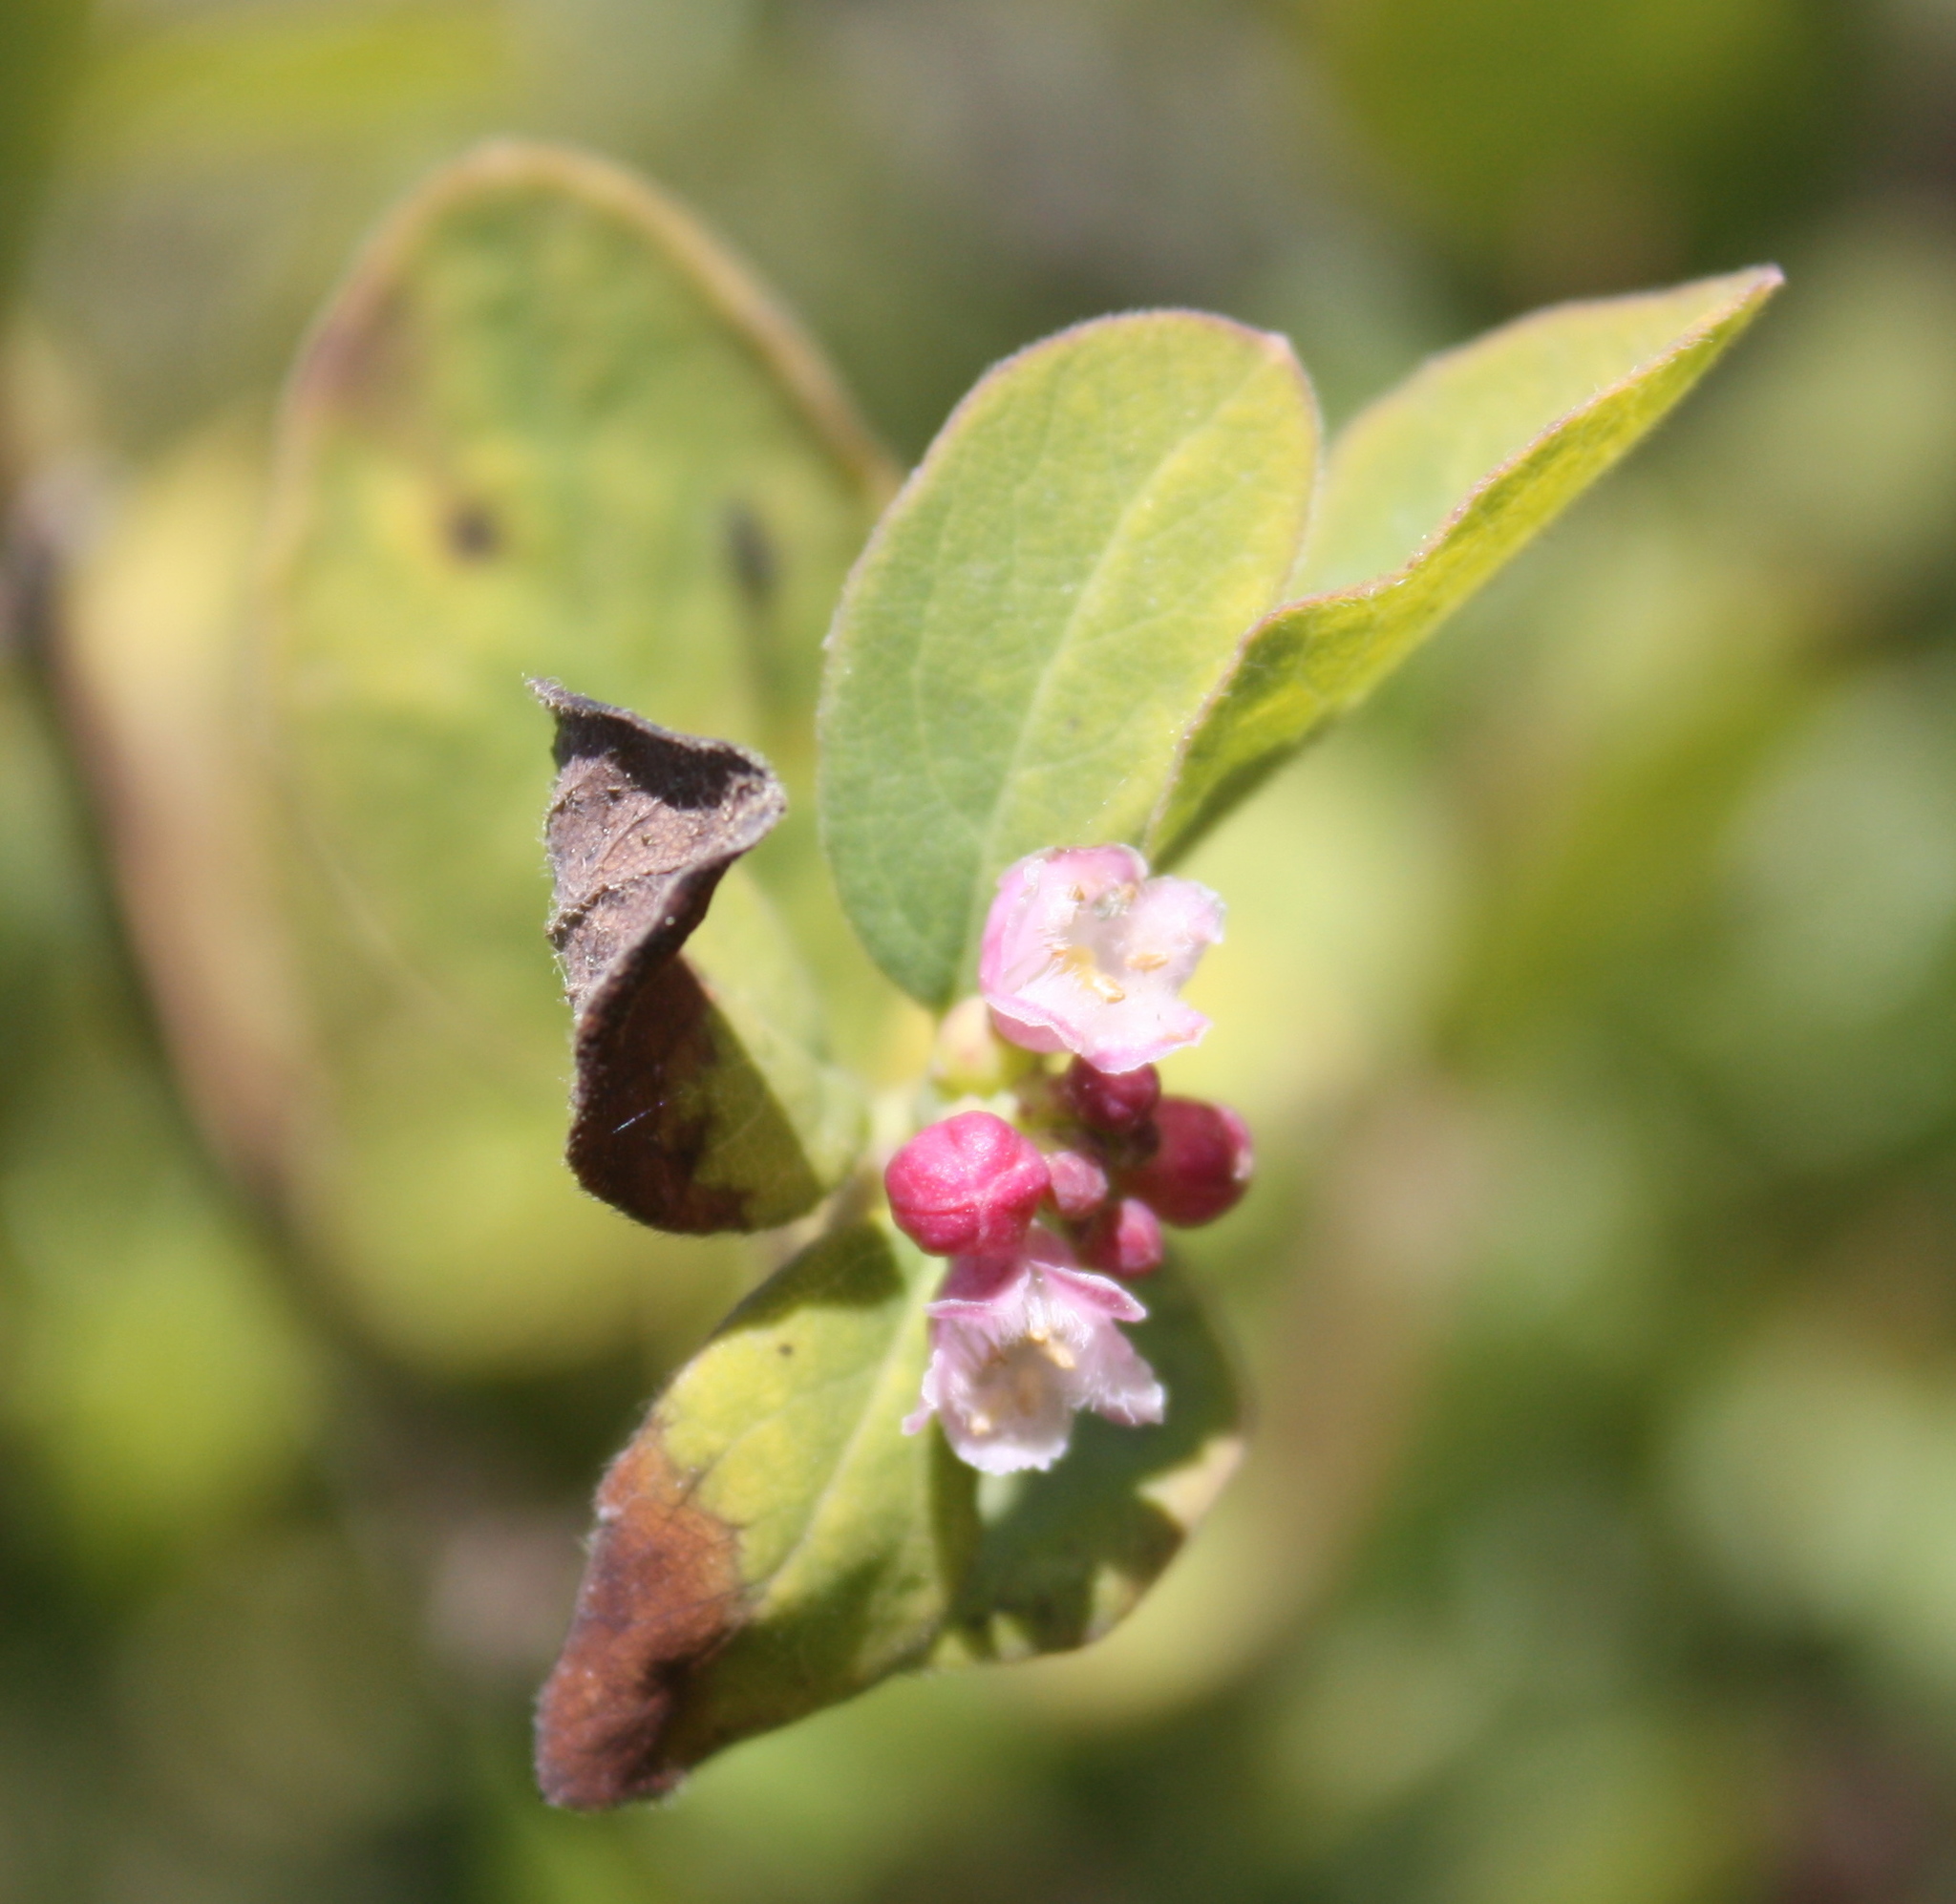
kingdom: Plantae
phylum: Tracheophyta
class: Magnoliopsida
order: Dipsacales
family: Caprifoliaceae
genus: Symphoricarpos
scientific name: Symphoricarpos albus
